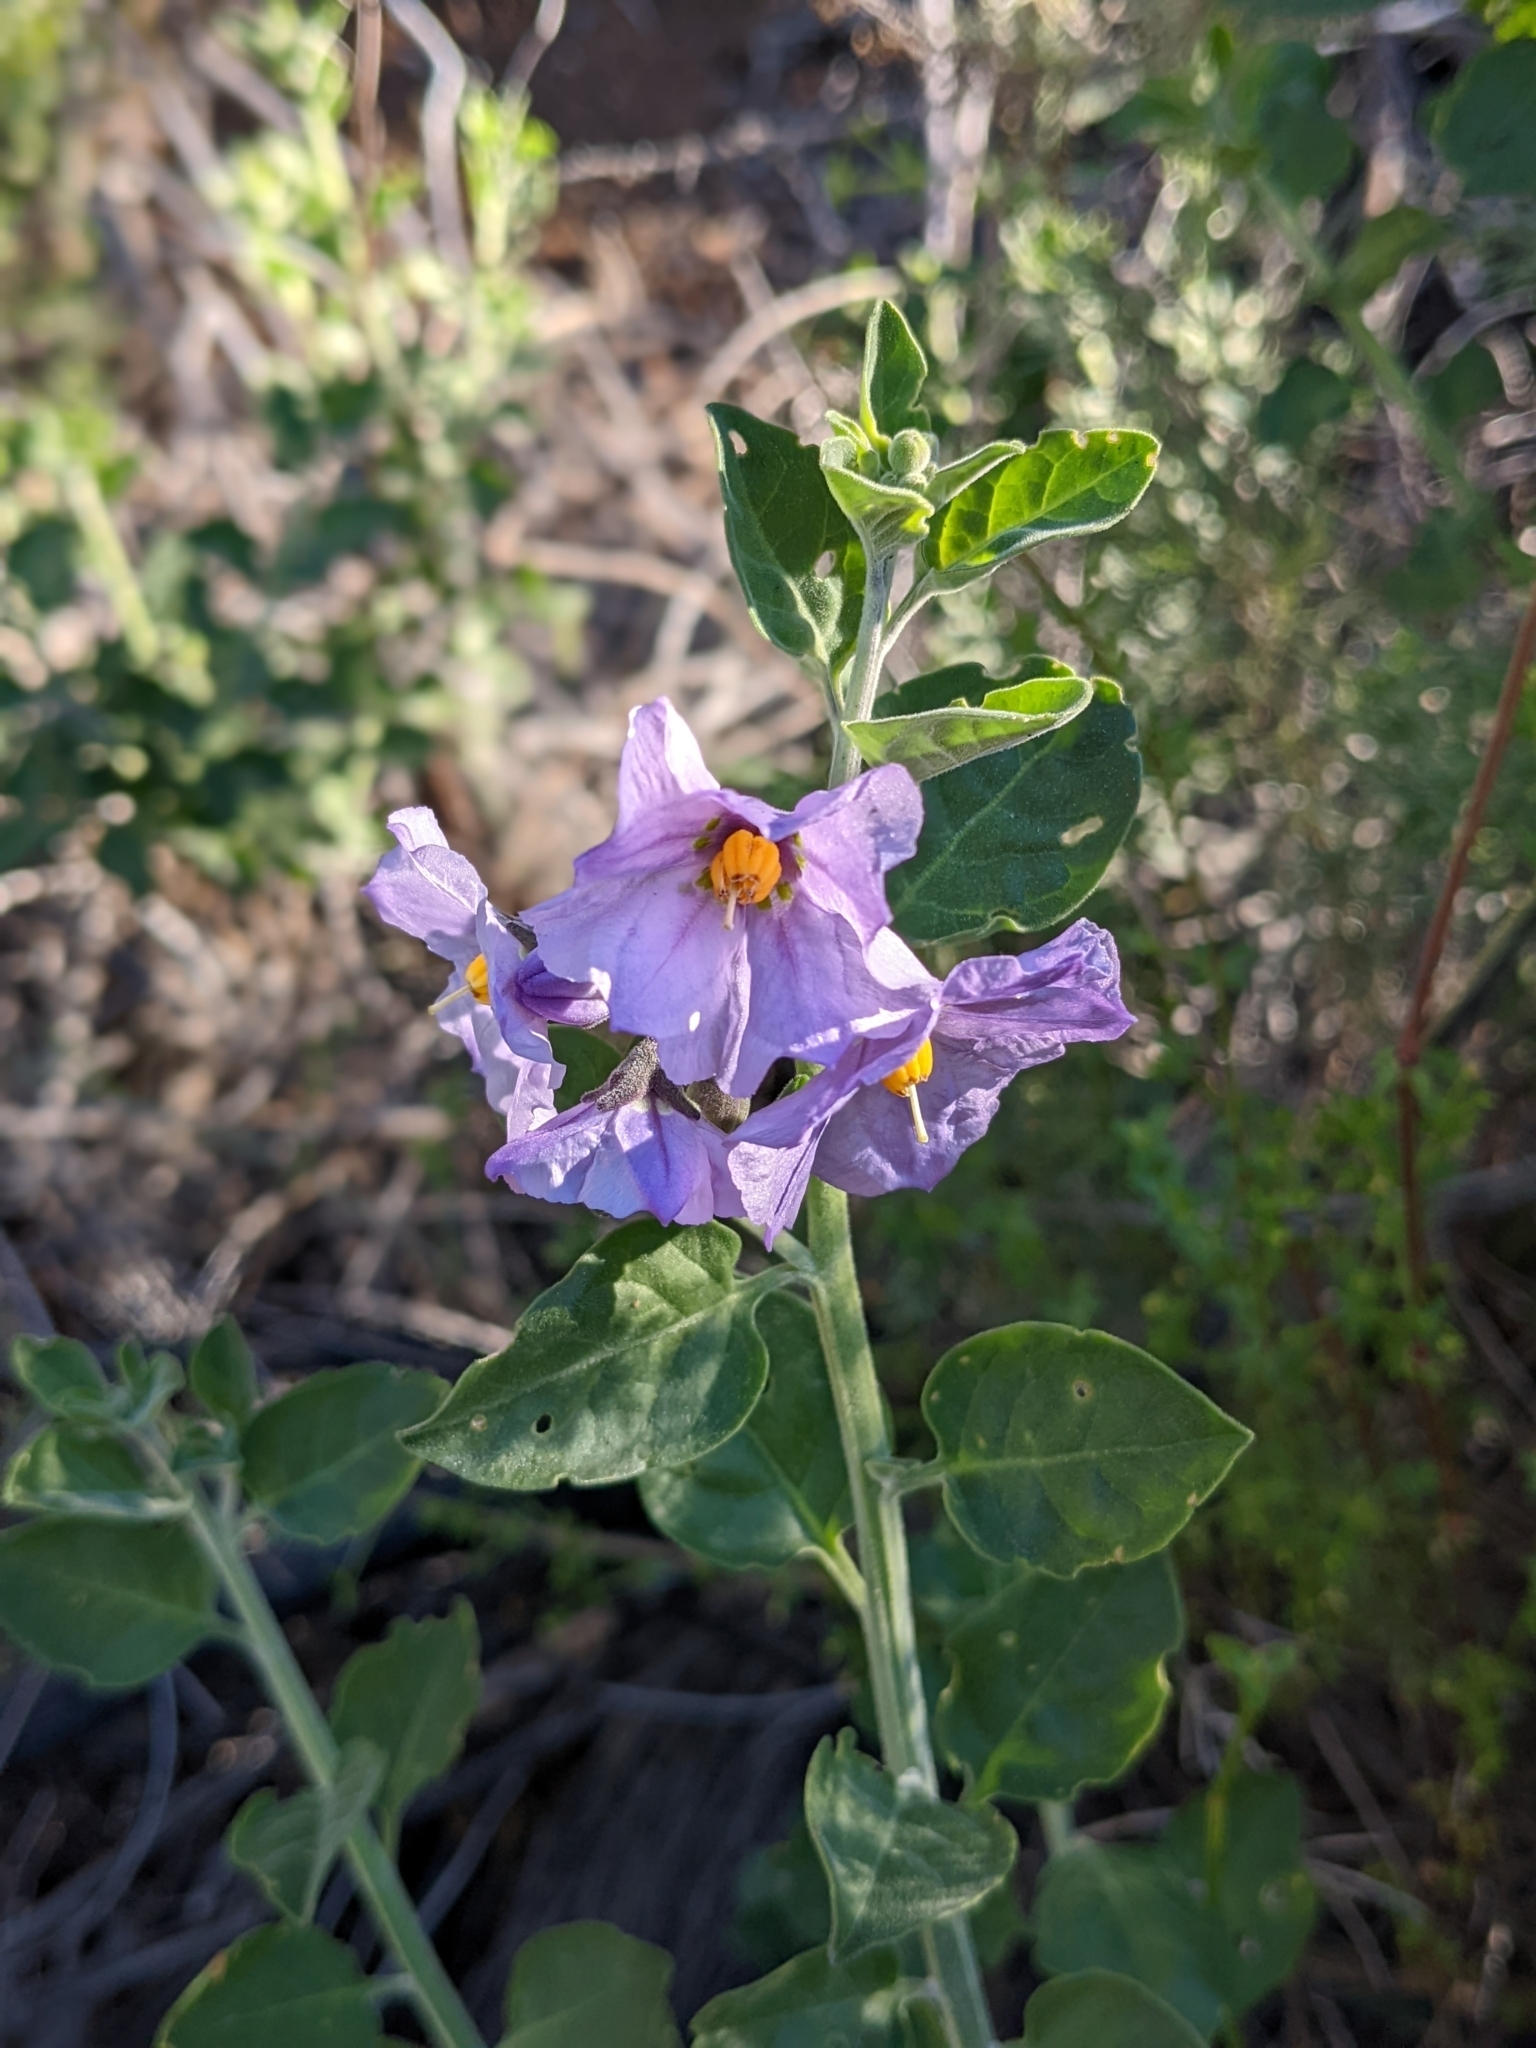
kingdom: Plantae
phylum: Tracheophyta
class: Magnoliopsida
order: Solanales
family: Solanaceae
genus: Solanum
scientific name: Solanum umbelliferum
